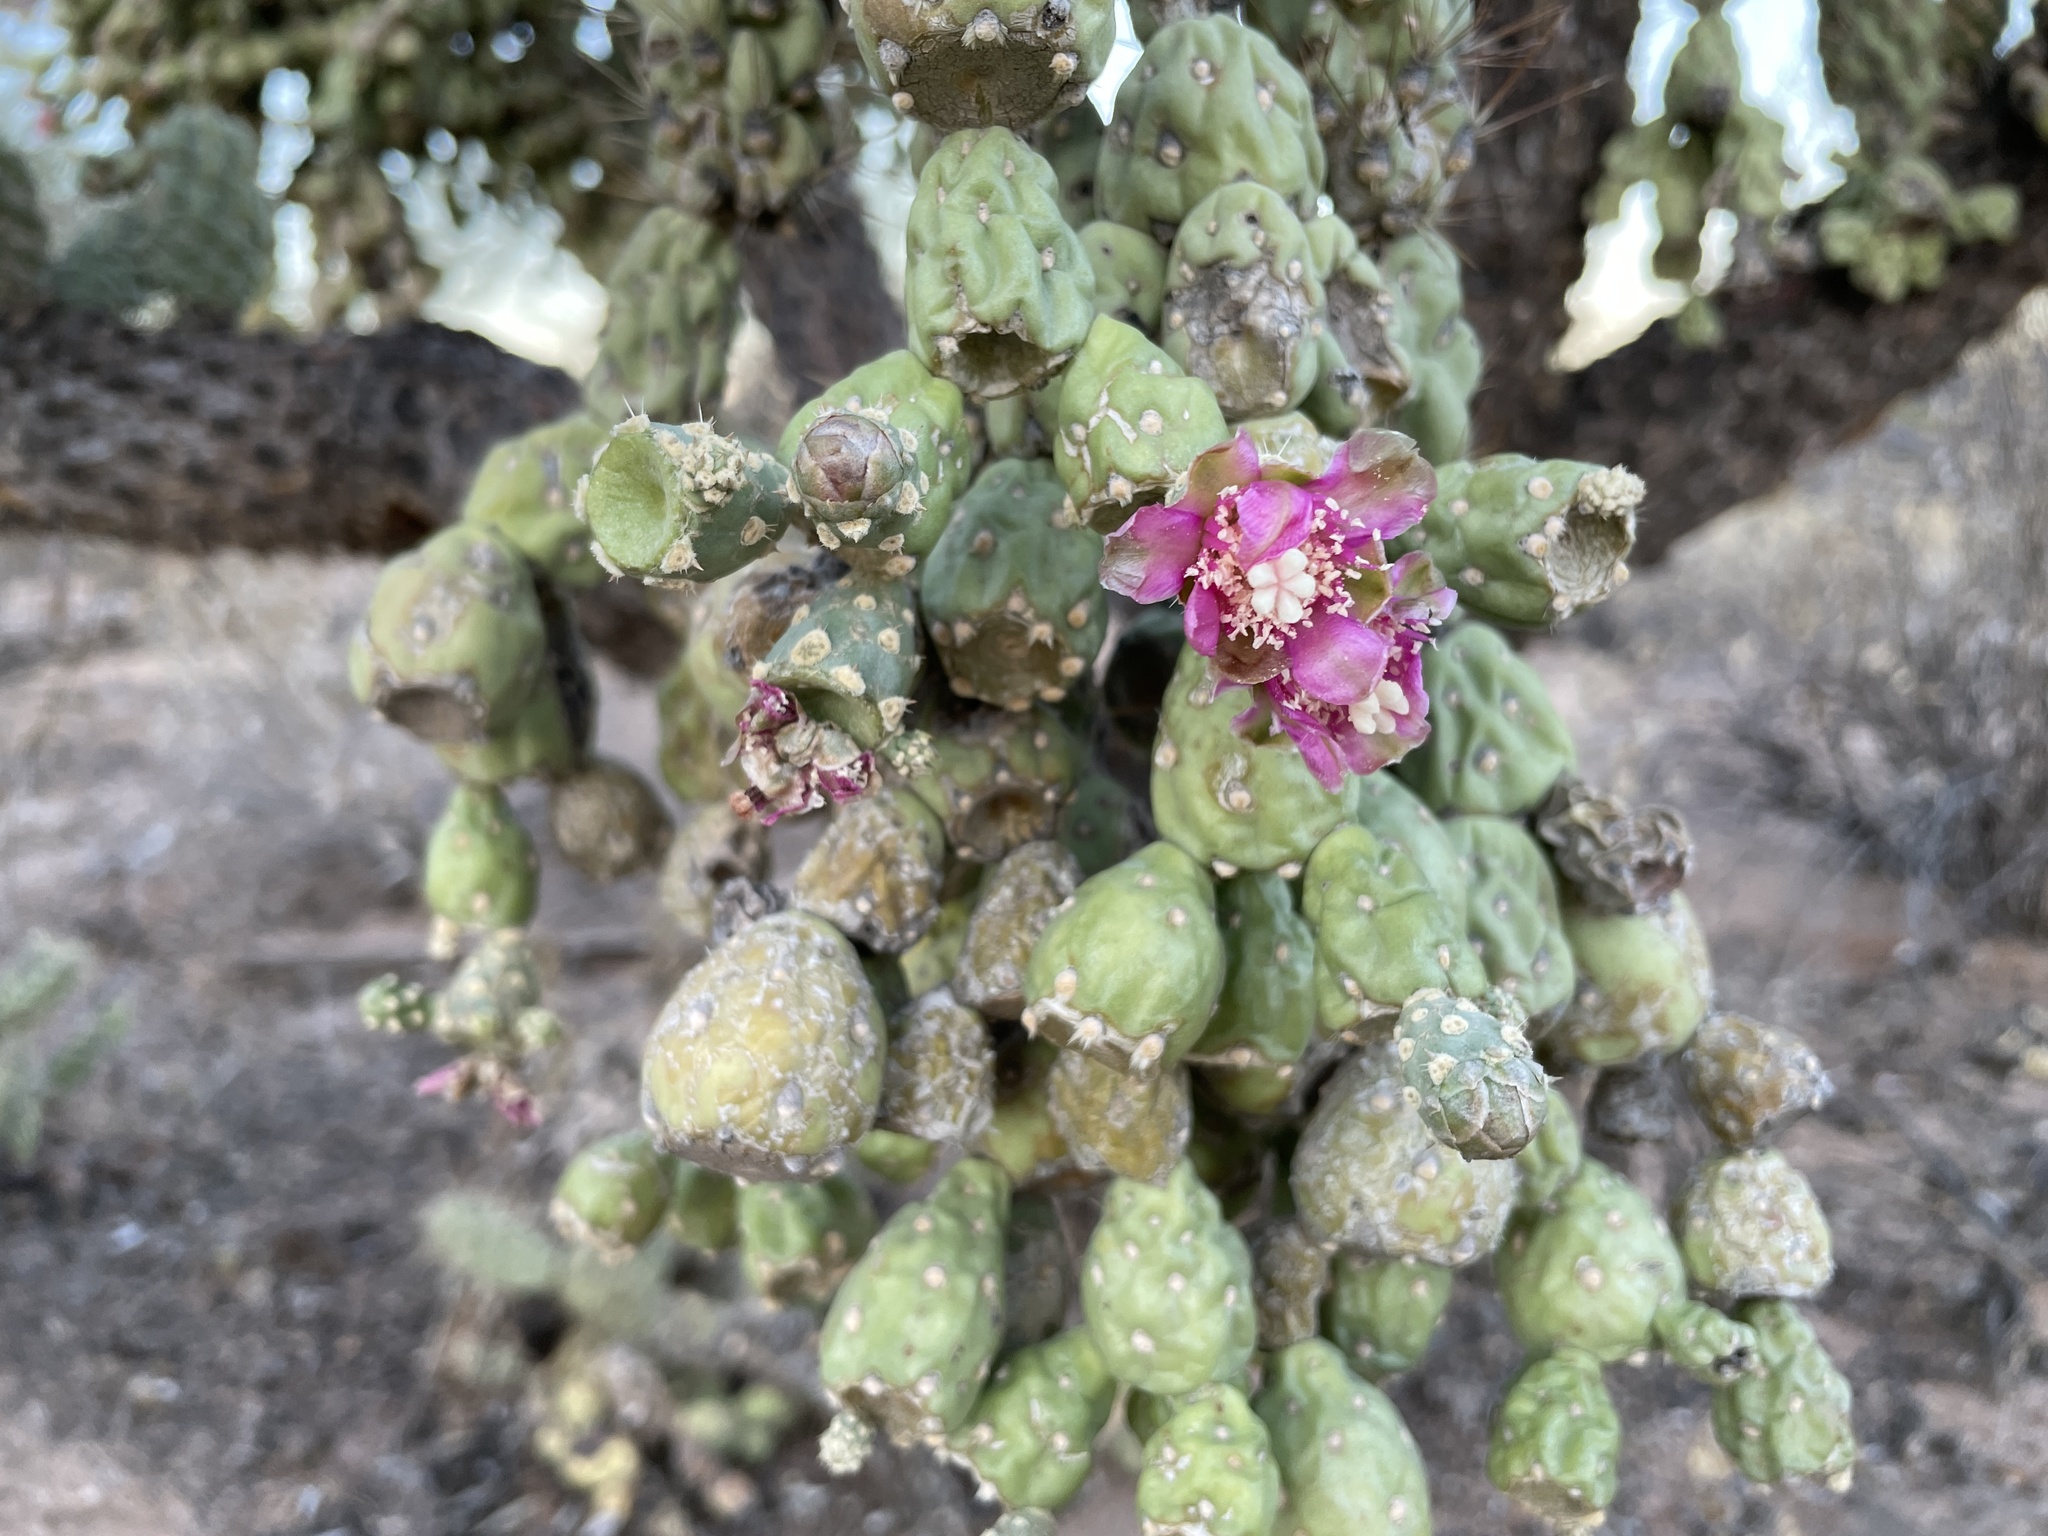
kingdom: Plantae
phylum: Tracheophyta
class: Magnoliopsida
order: Caryophyllales
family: Cactaceae
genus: Cylindropuntia
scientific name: Cylindropuntia fulgida
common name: Jumping cholla
